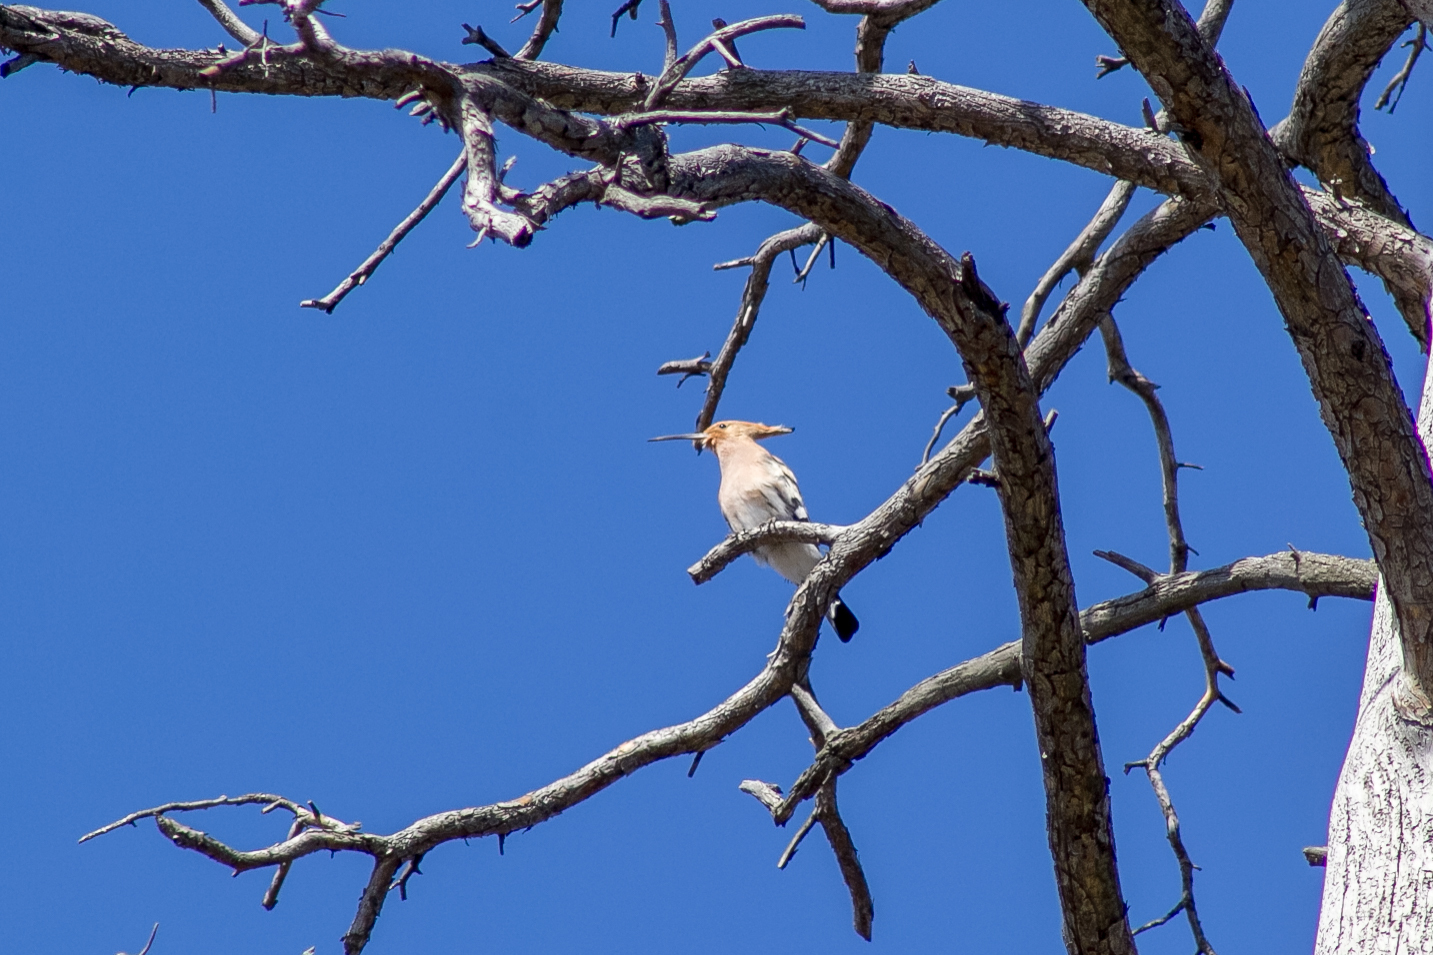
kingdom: Animalia
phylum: Chordata
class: Aves
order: Bucerotiformes
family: Upupidae
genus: Upupa
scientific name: Upupa epops
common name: Eurasian hoopoe
